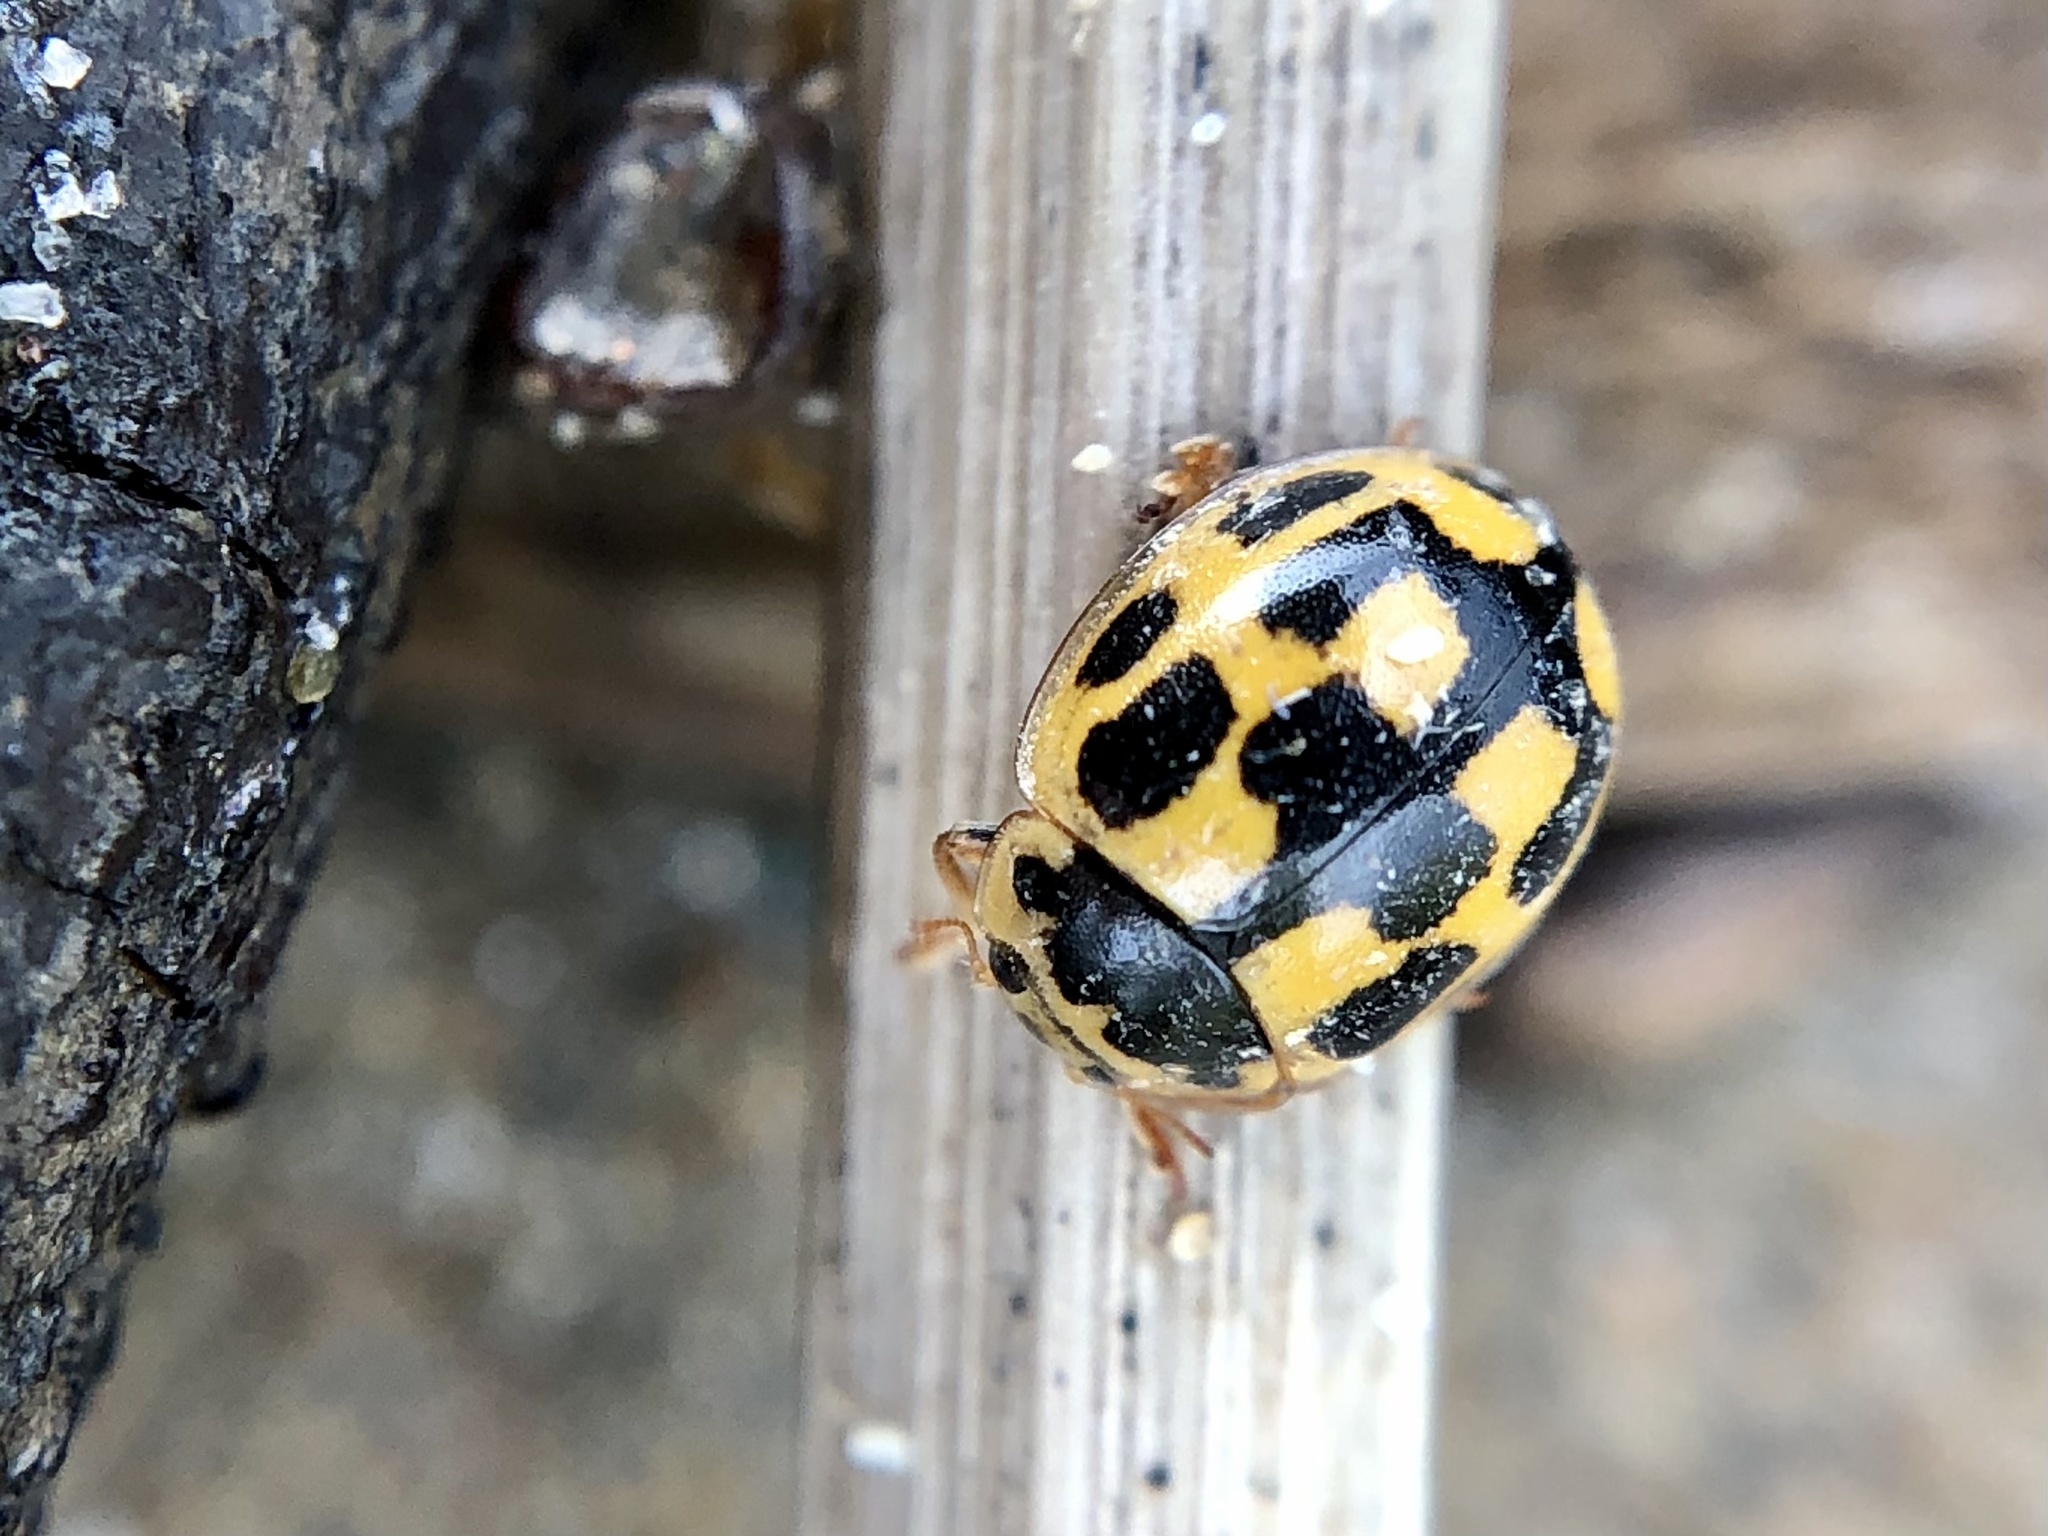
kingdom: Animalia
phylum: Arthropoda
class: Insecta
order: Coleoptera
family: Coccinellidae
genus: Propylaea
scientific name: Propylaea quatuordecimpunctata
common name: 14-spotted ladybird beetle
